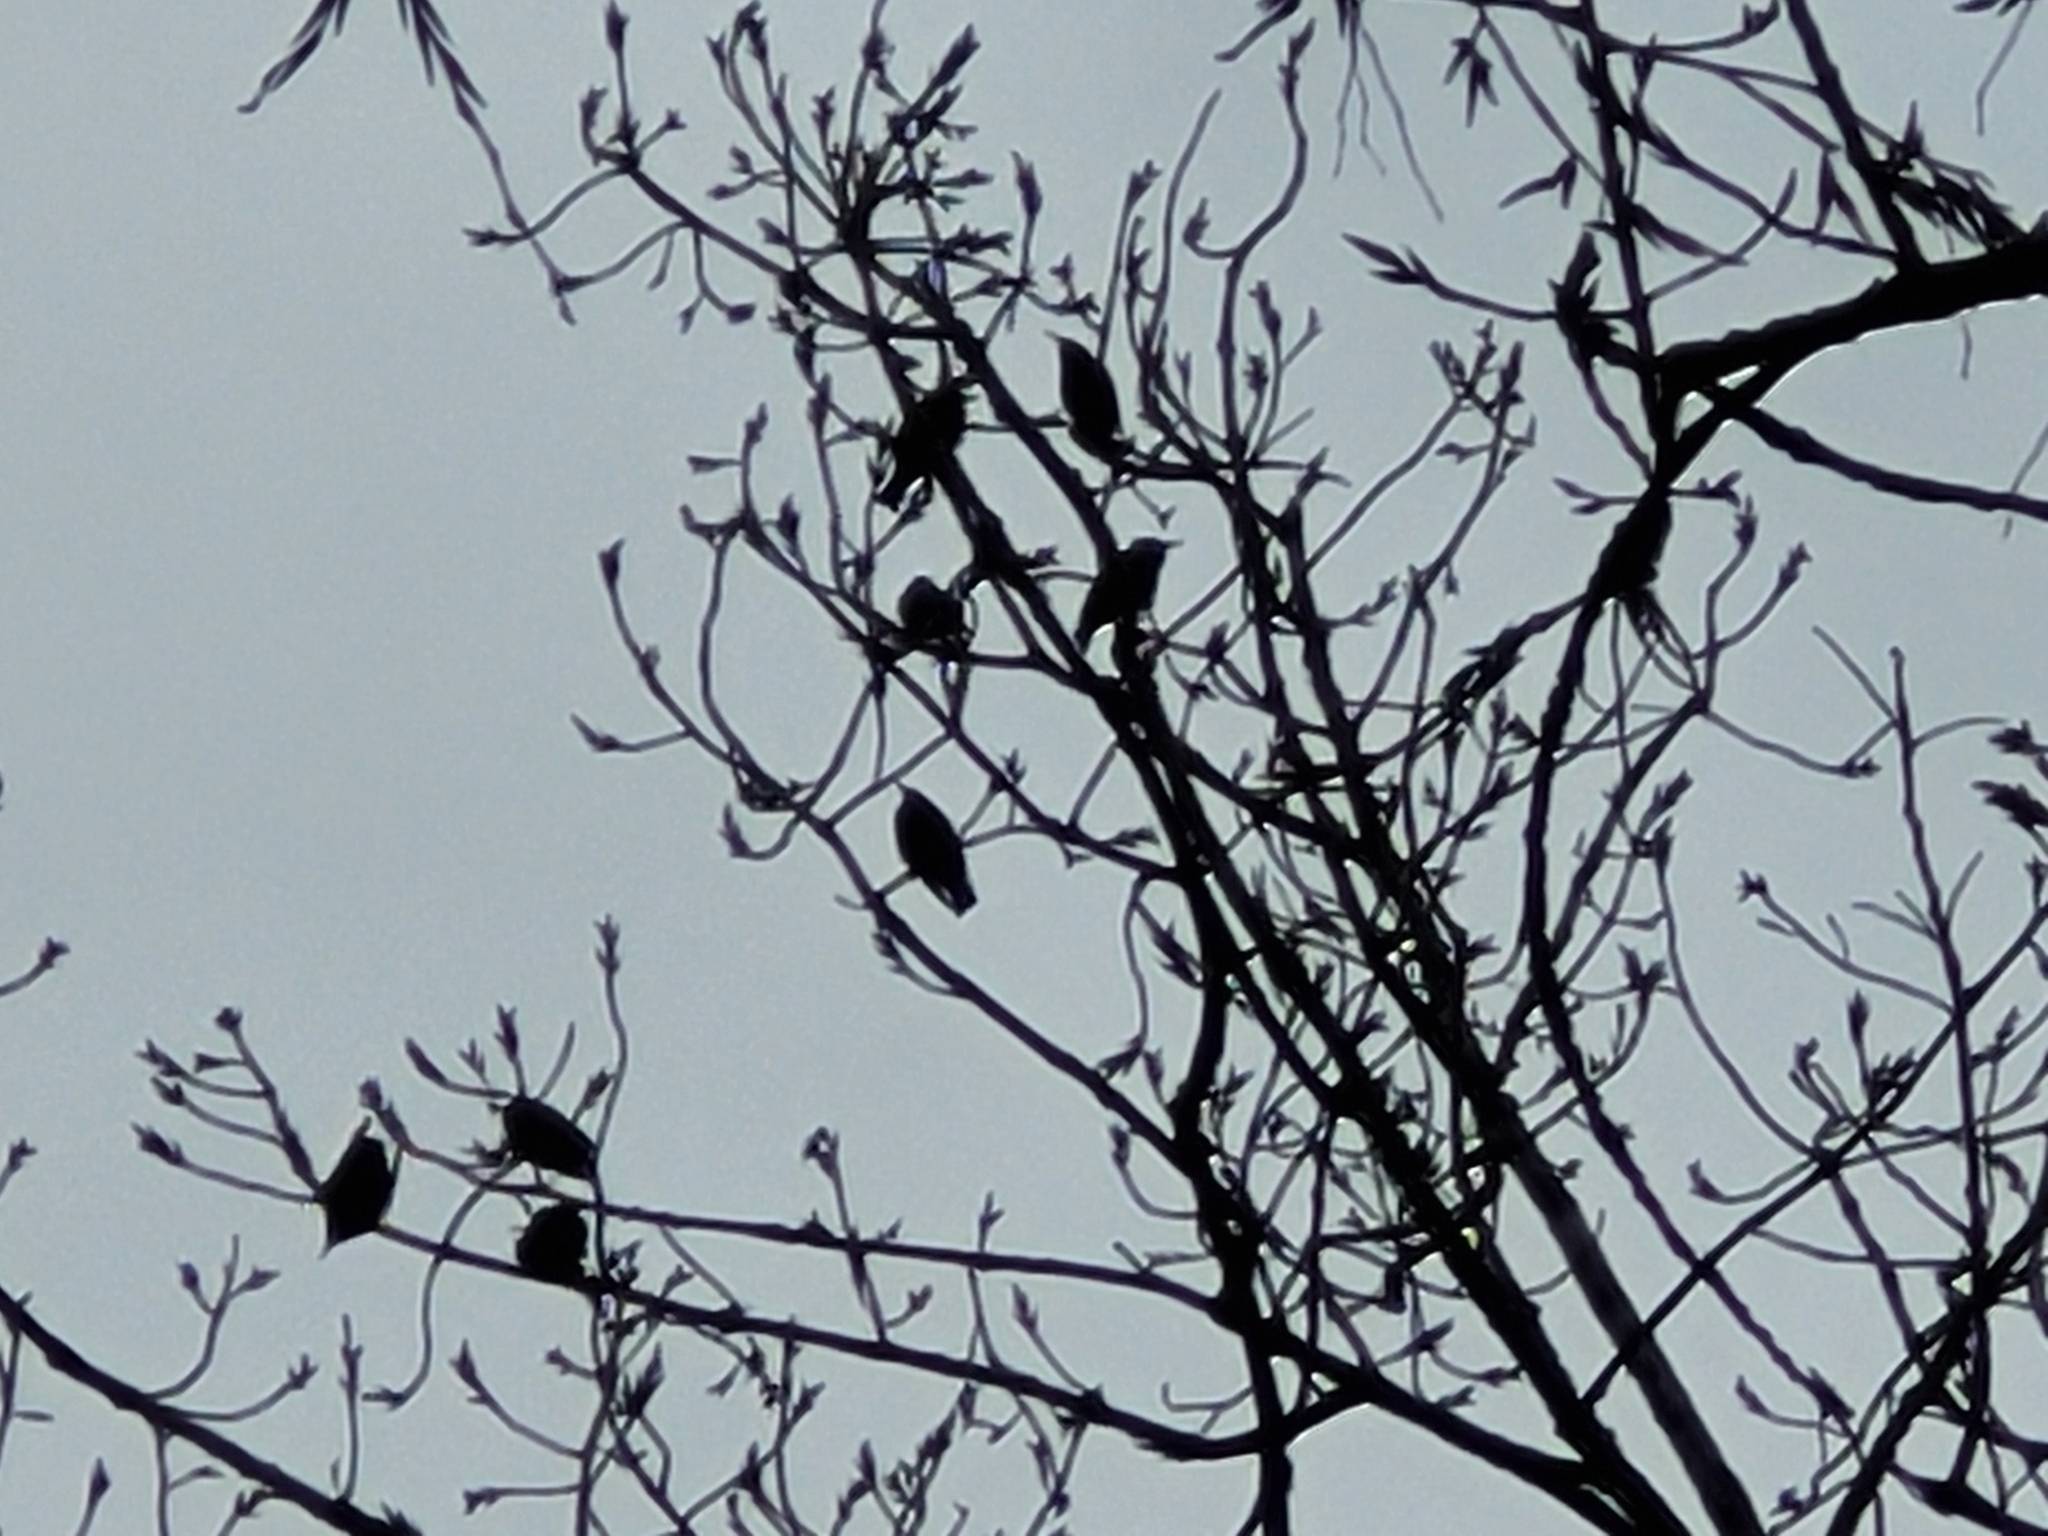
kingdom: Animalia
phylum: Chordata
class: Aves
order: Passeriformes
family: Sturnidae
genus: Sturnus
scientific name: Sturnus vulgaris
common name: Common starling
